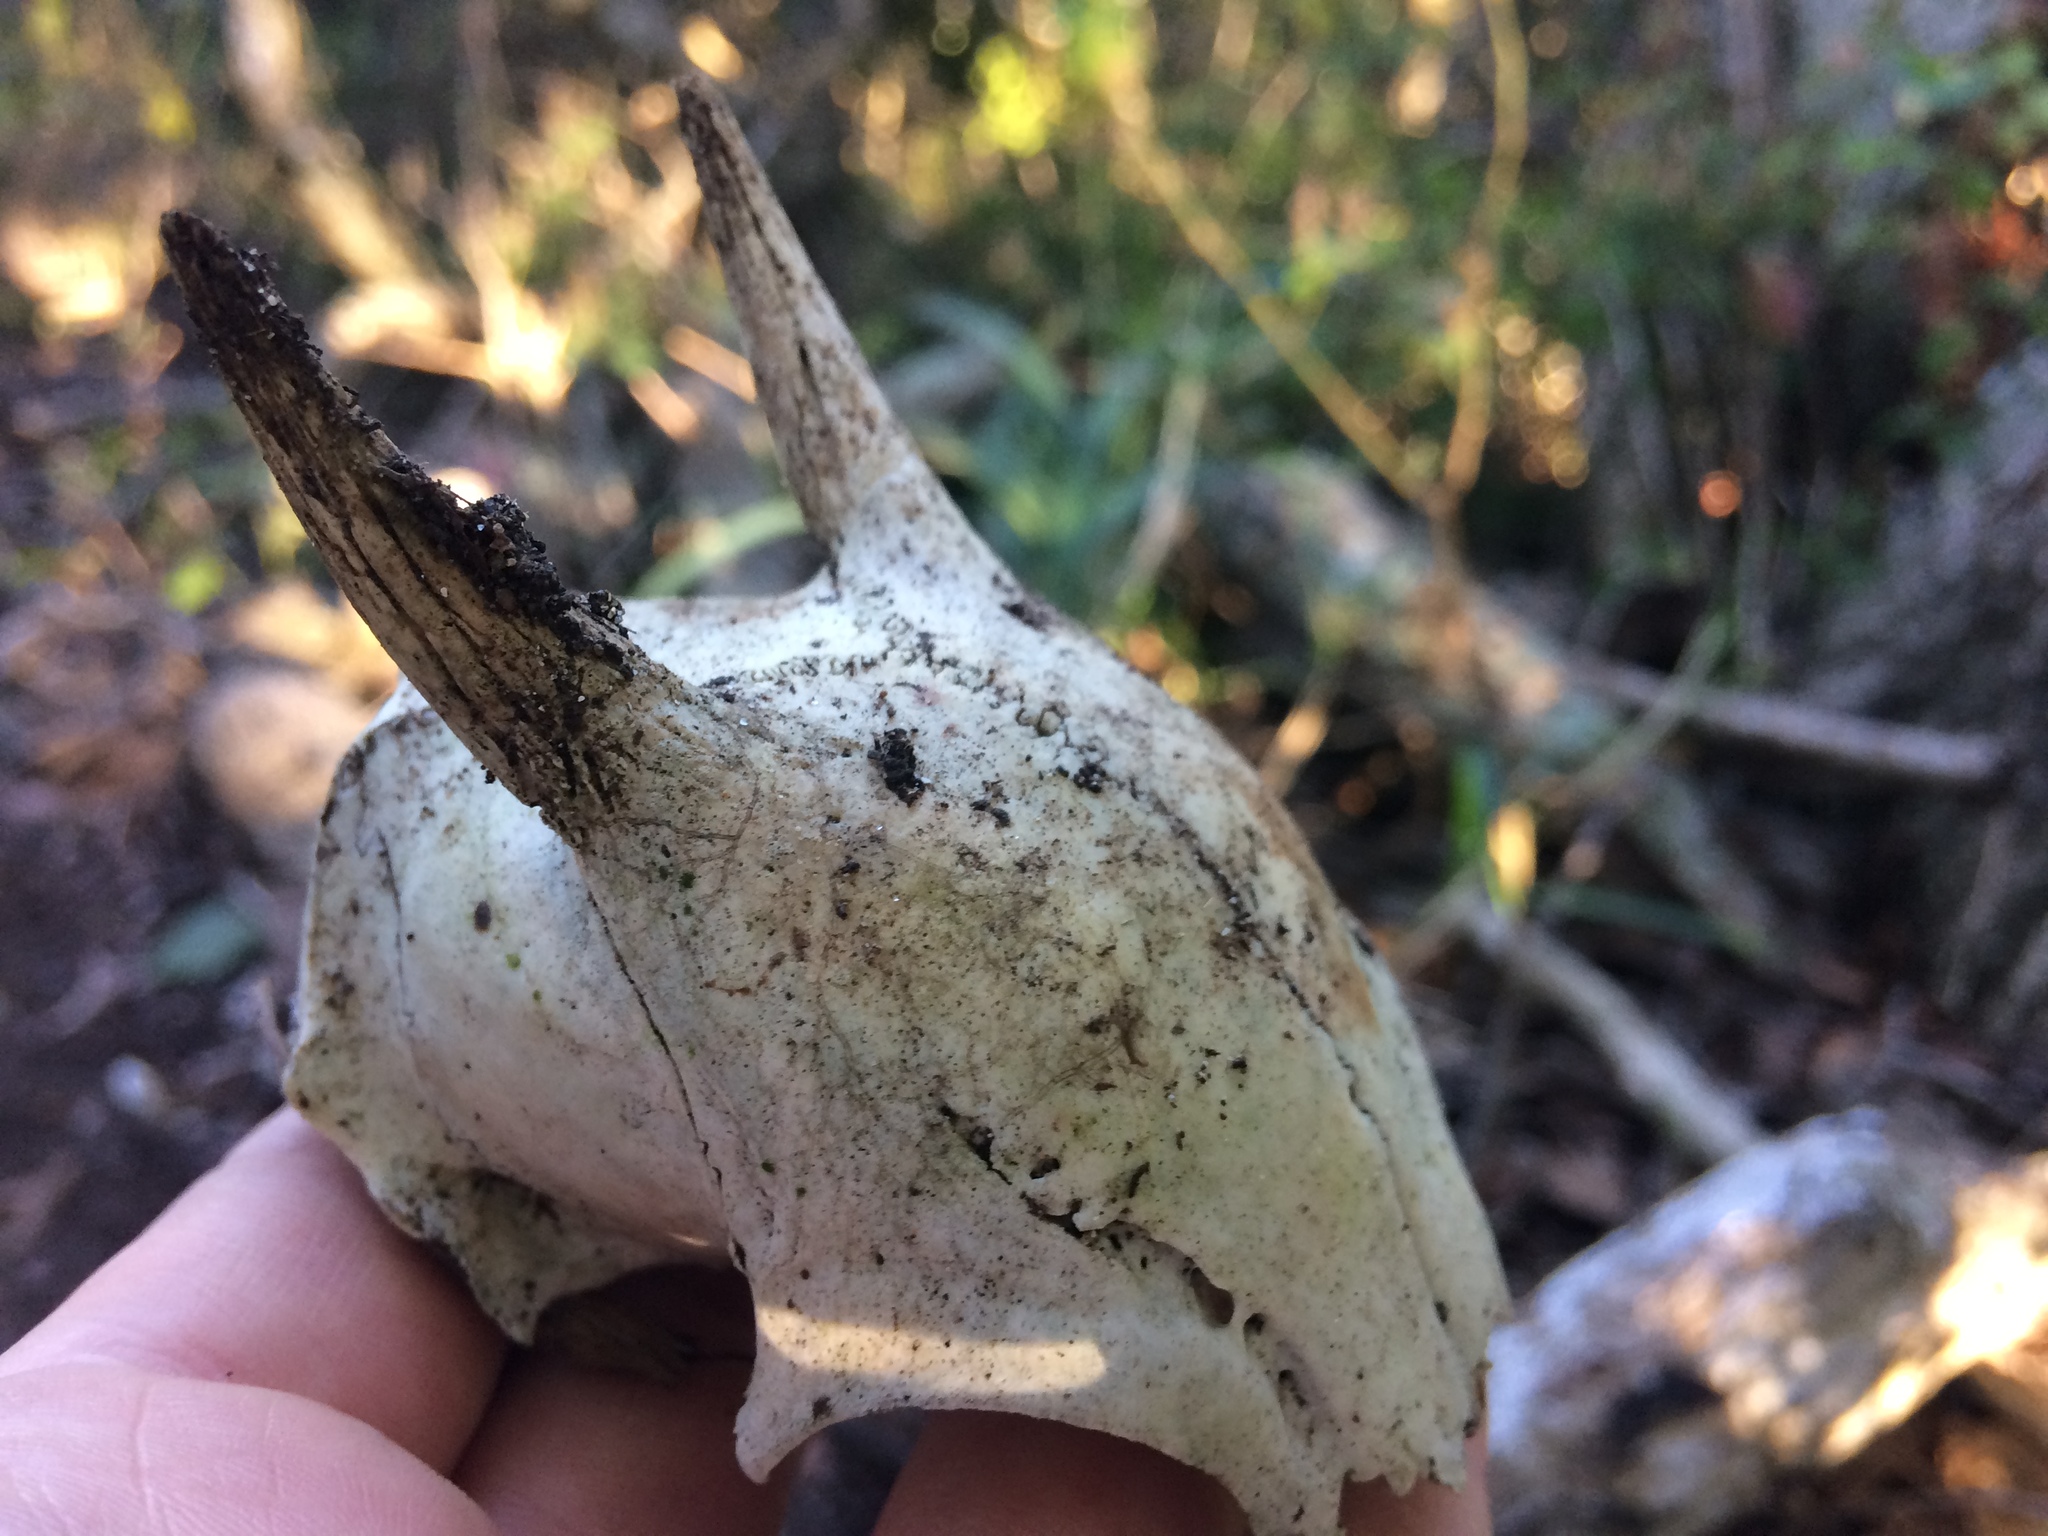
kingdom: Animalia
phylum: Chordata
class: Mammalia
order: Artiodactyla
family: Bovidae
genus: Philantomba
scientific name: Philantomba monticola
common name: Blue duiker
